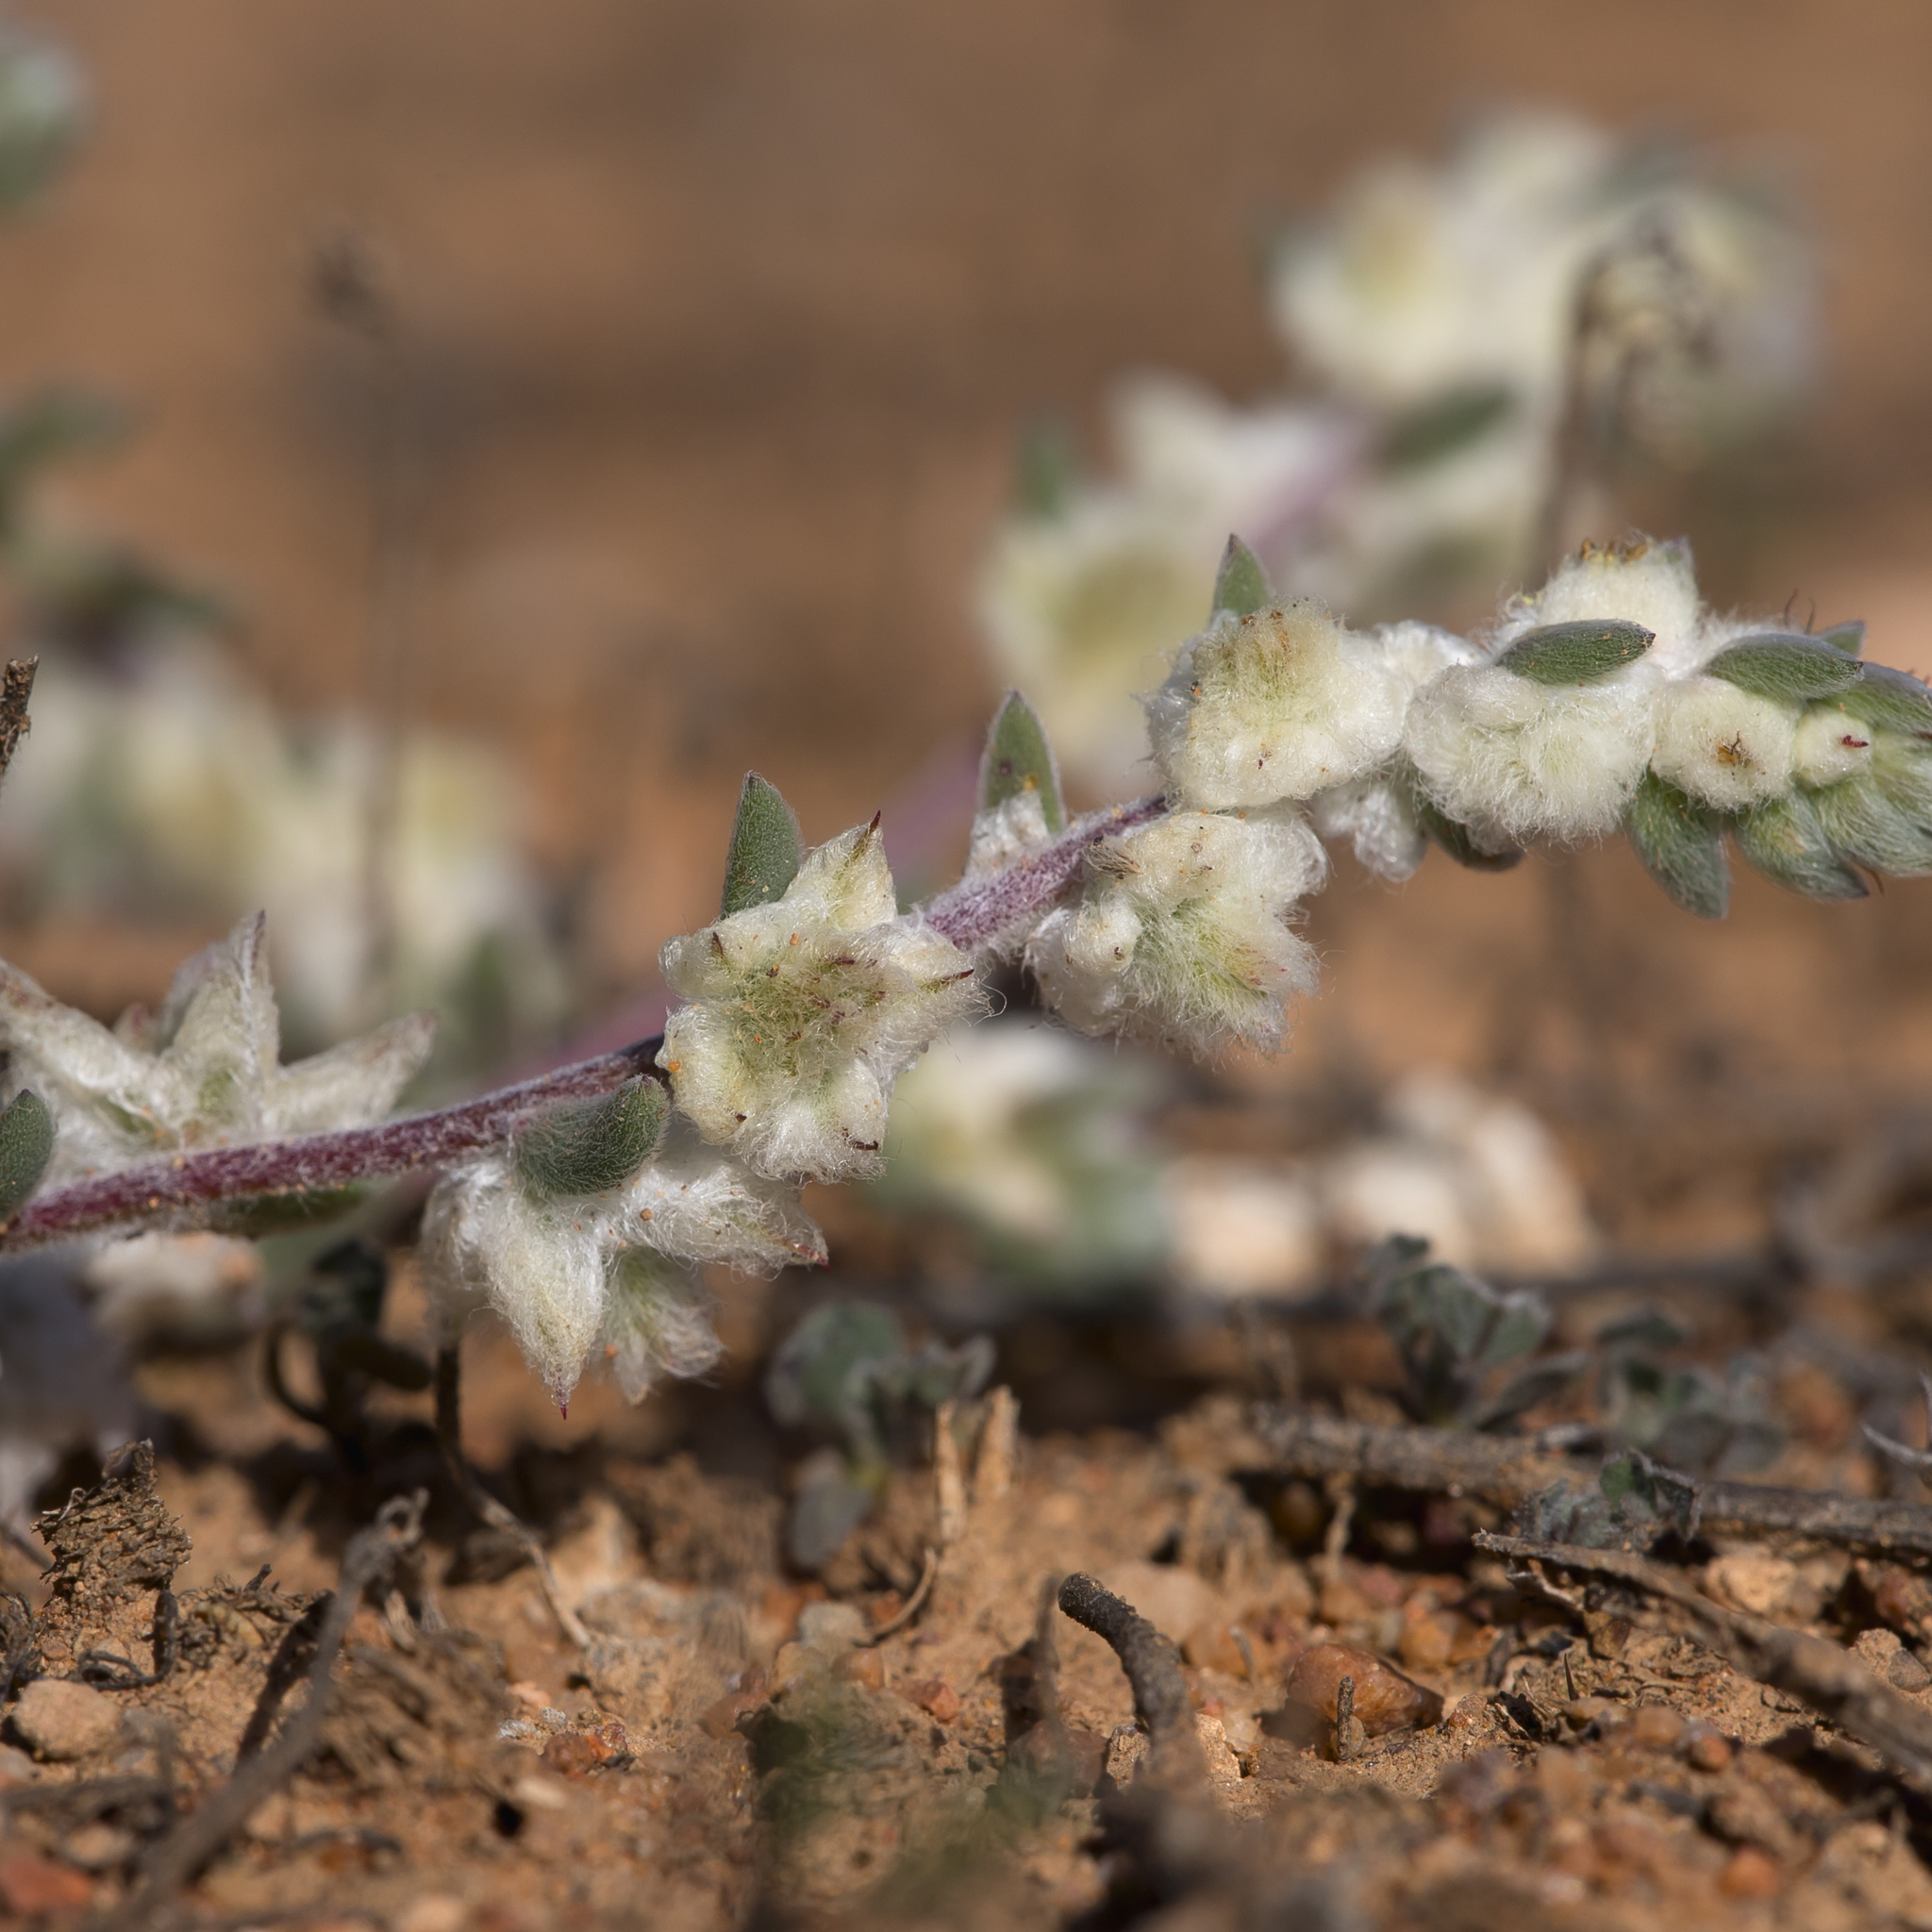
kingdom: Plantae
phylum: Tracheophyta
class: Magnoliopsida
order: Caryophyllales
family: Amaranthaceae
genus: Maireana
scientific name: Maireana sclerolaenoides
